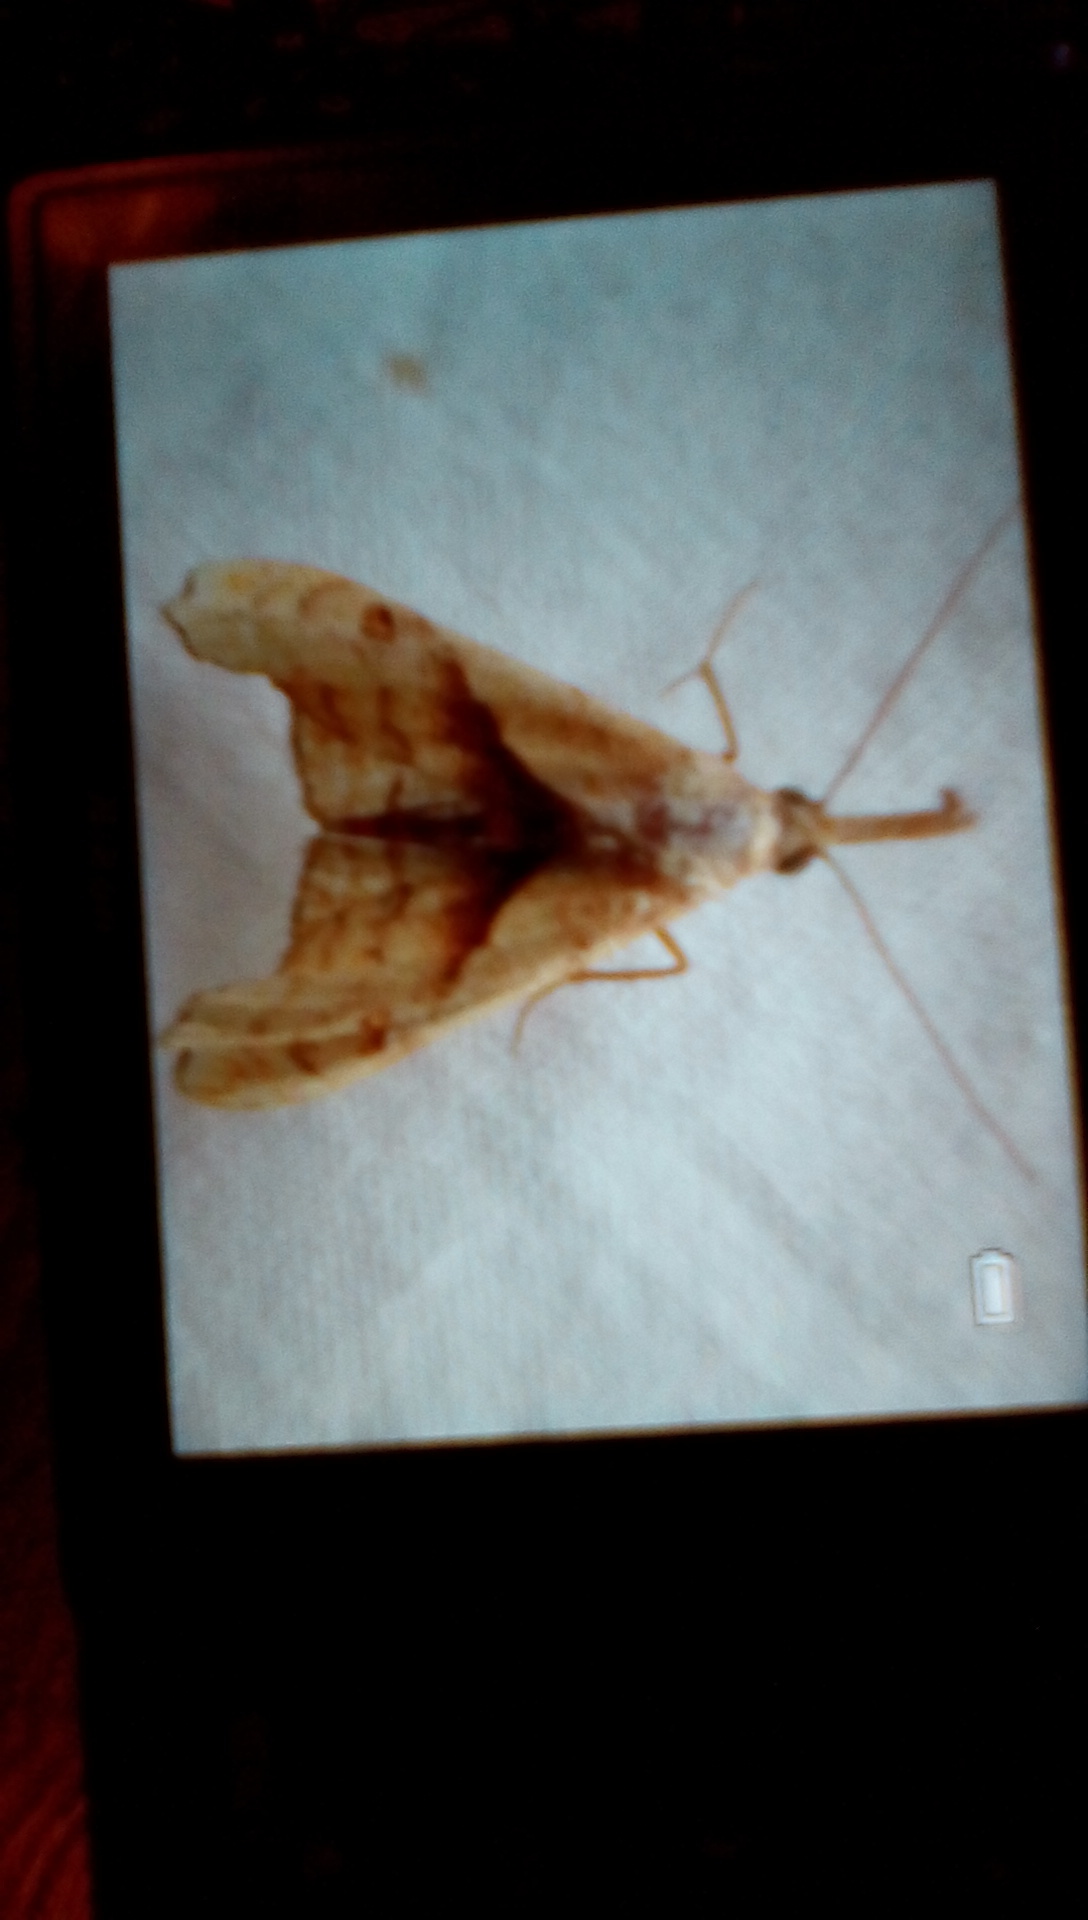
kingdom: Animalia
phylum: Arthropoda
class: Insecta
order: Lepidoptera
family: Erebidae
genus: Palthis
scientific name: Palthis angulalis
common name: Dark-spotted palthis moth
